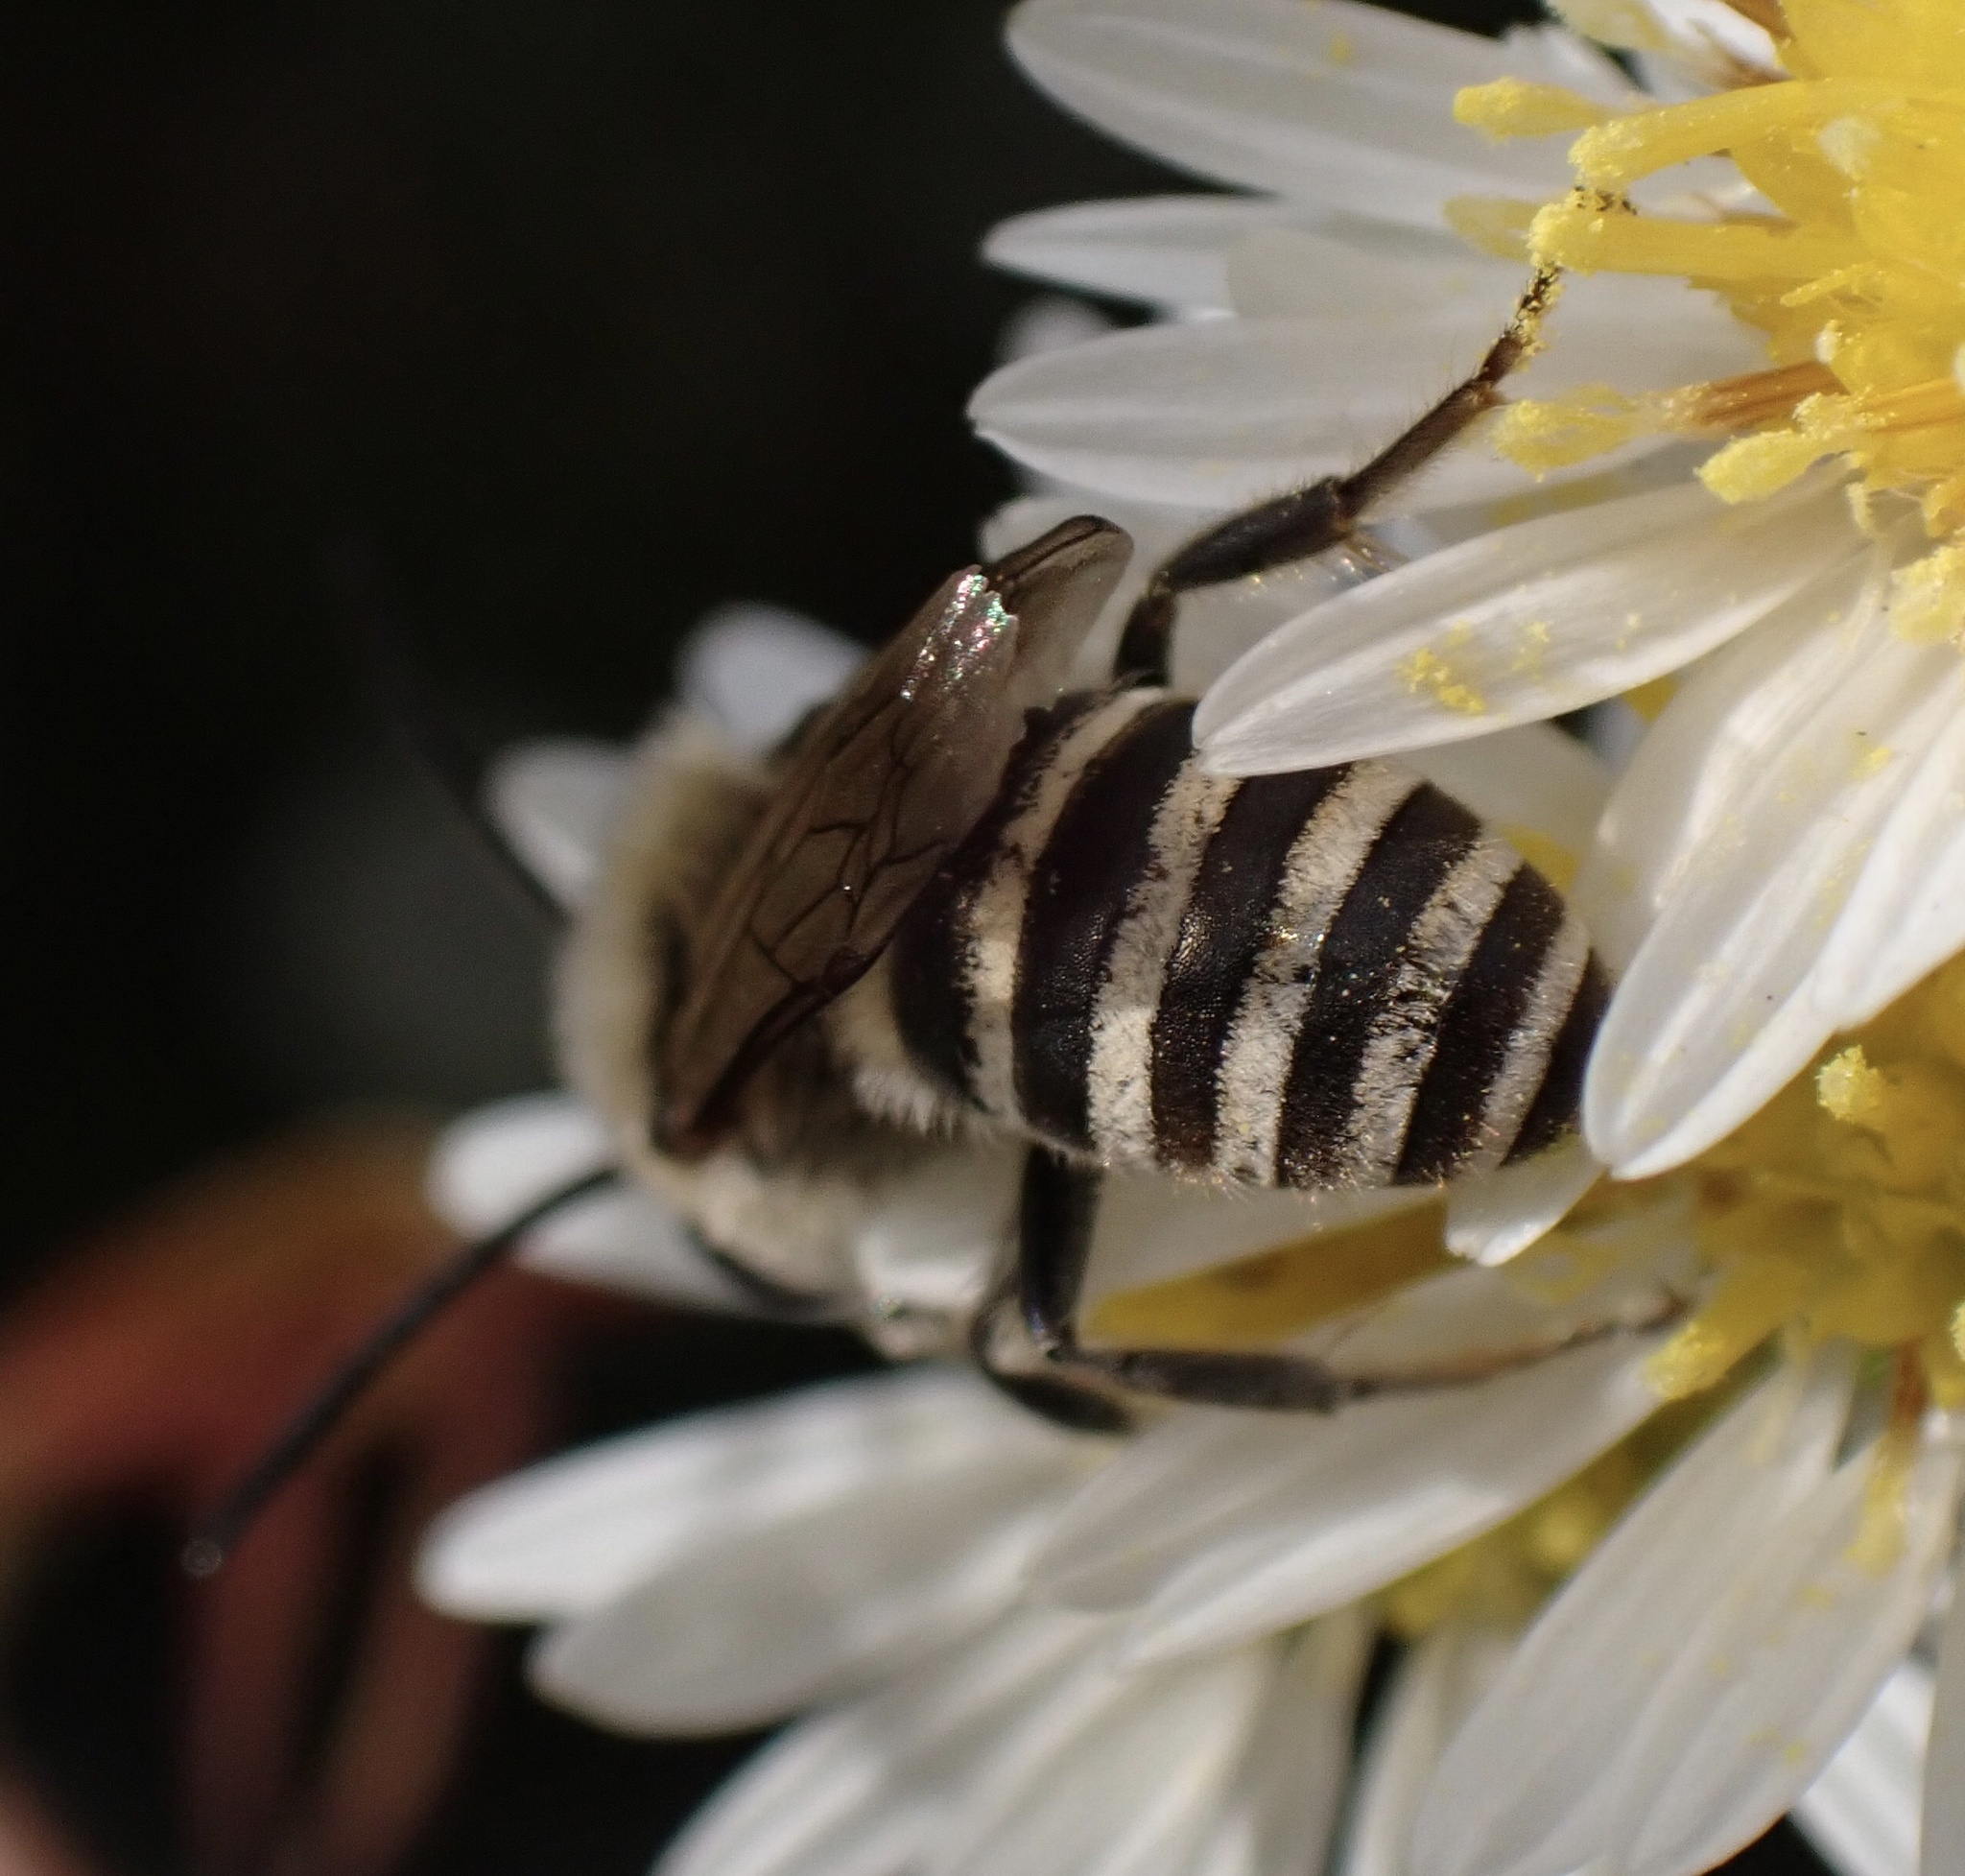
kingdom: Animalia
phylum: Arthropoda
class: Insecta
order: Hymenoptera
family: Colletidae
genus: Colletes
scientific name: Colletes hederae
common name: Ivy bee
